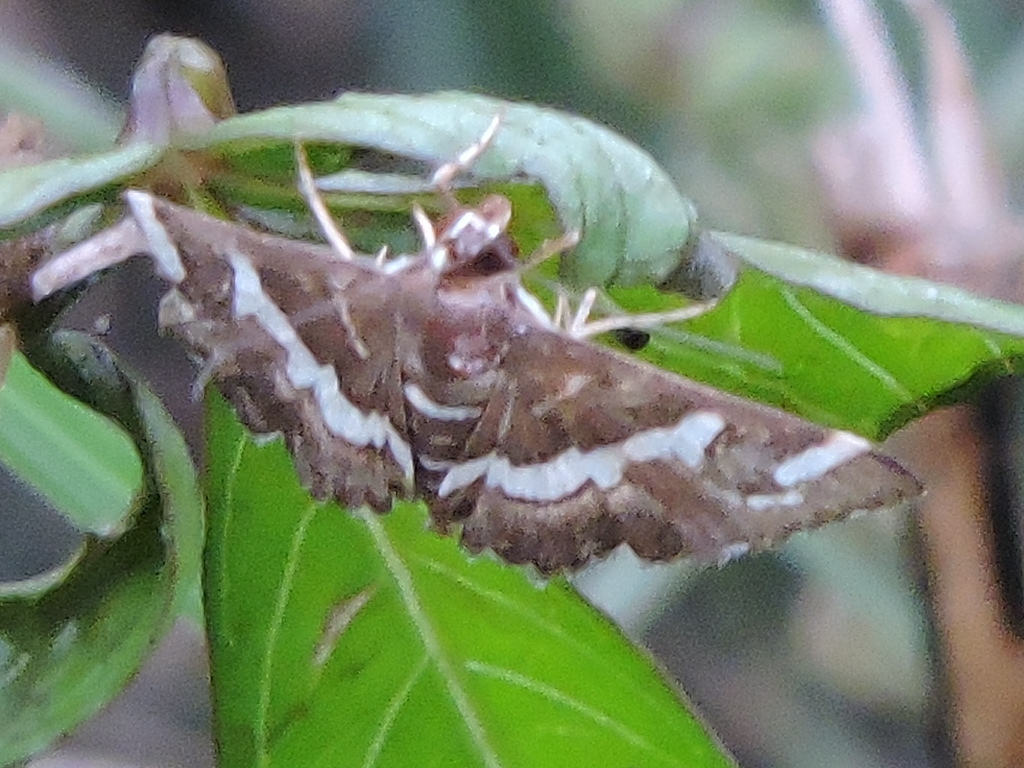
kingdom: Animalia
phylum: Arthropoda
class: Insecta
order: Lepidoptera
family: Crambidae
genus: Spoladea
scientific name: Spoladea recurvalis
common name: Beet webworm moth
